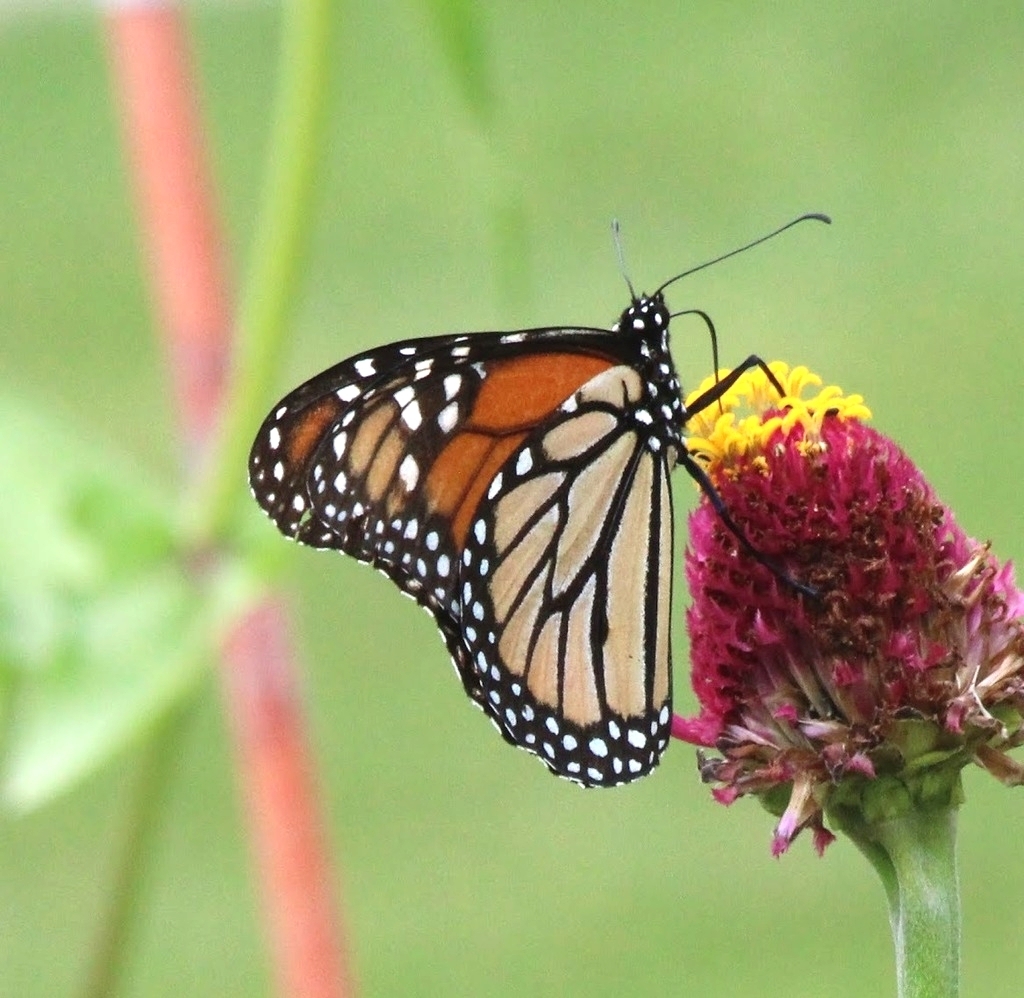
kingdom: Animalia
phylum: Arthropoda
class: Insecta
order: Lepidoptera
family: Nymphalidae
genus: Danaus
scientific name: Danaus plexippus
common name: Monarch
